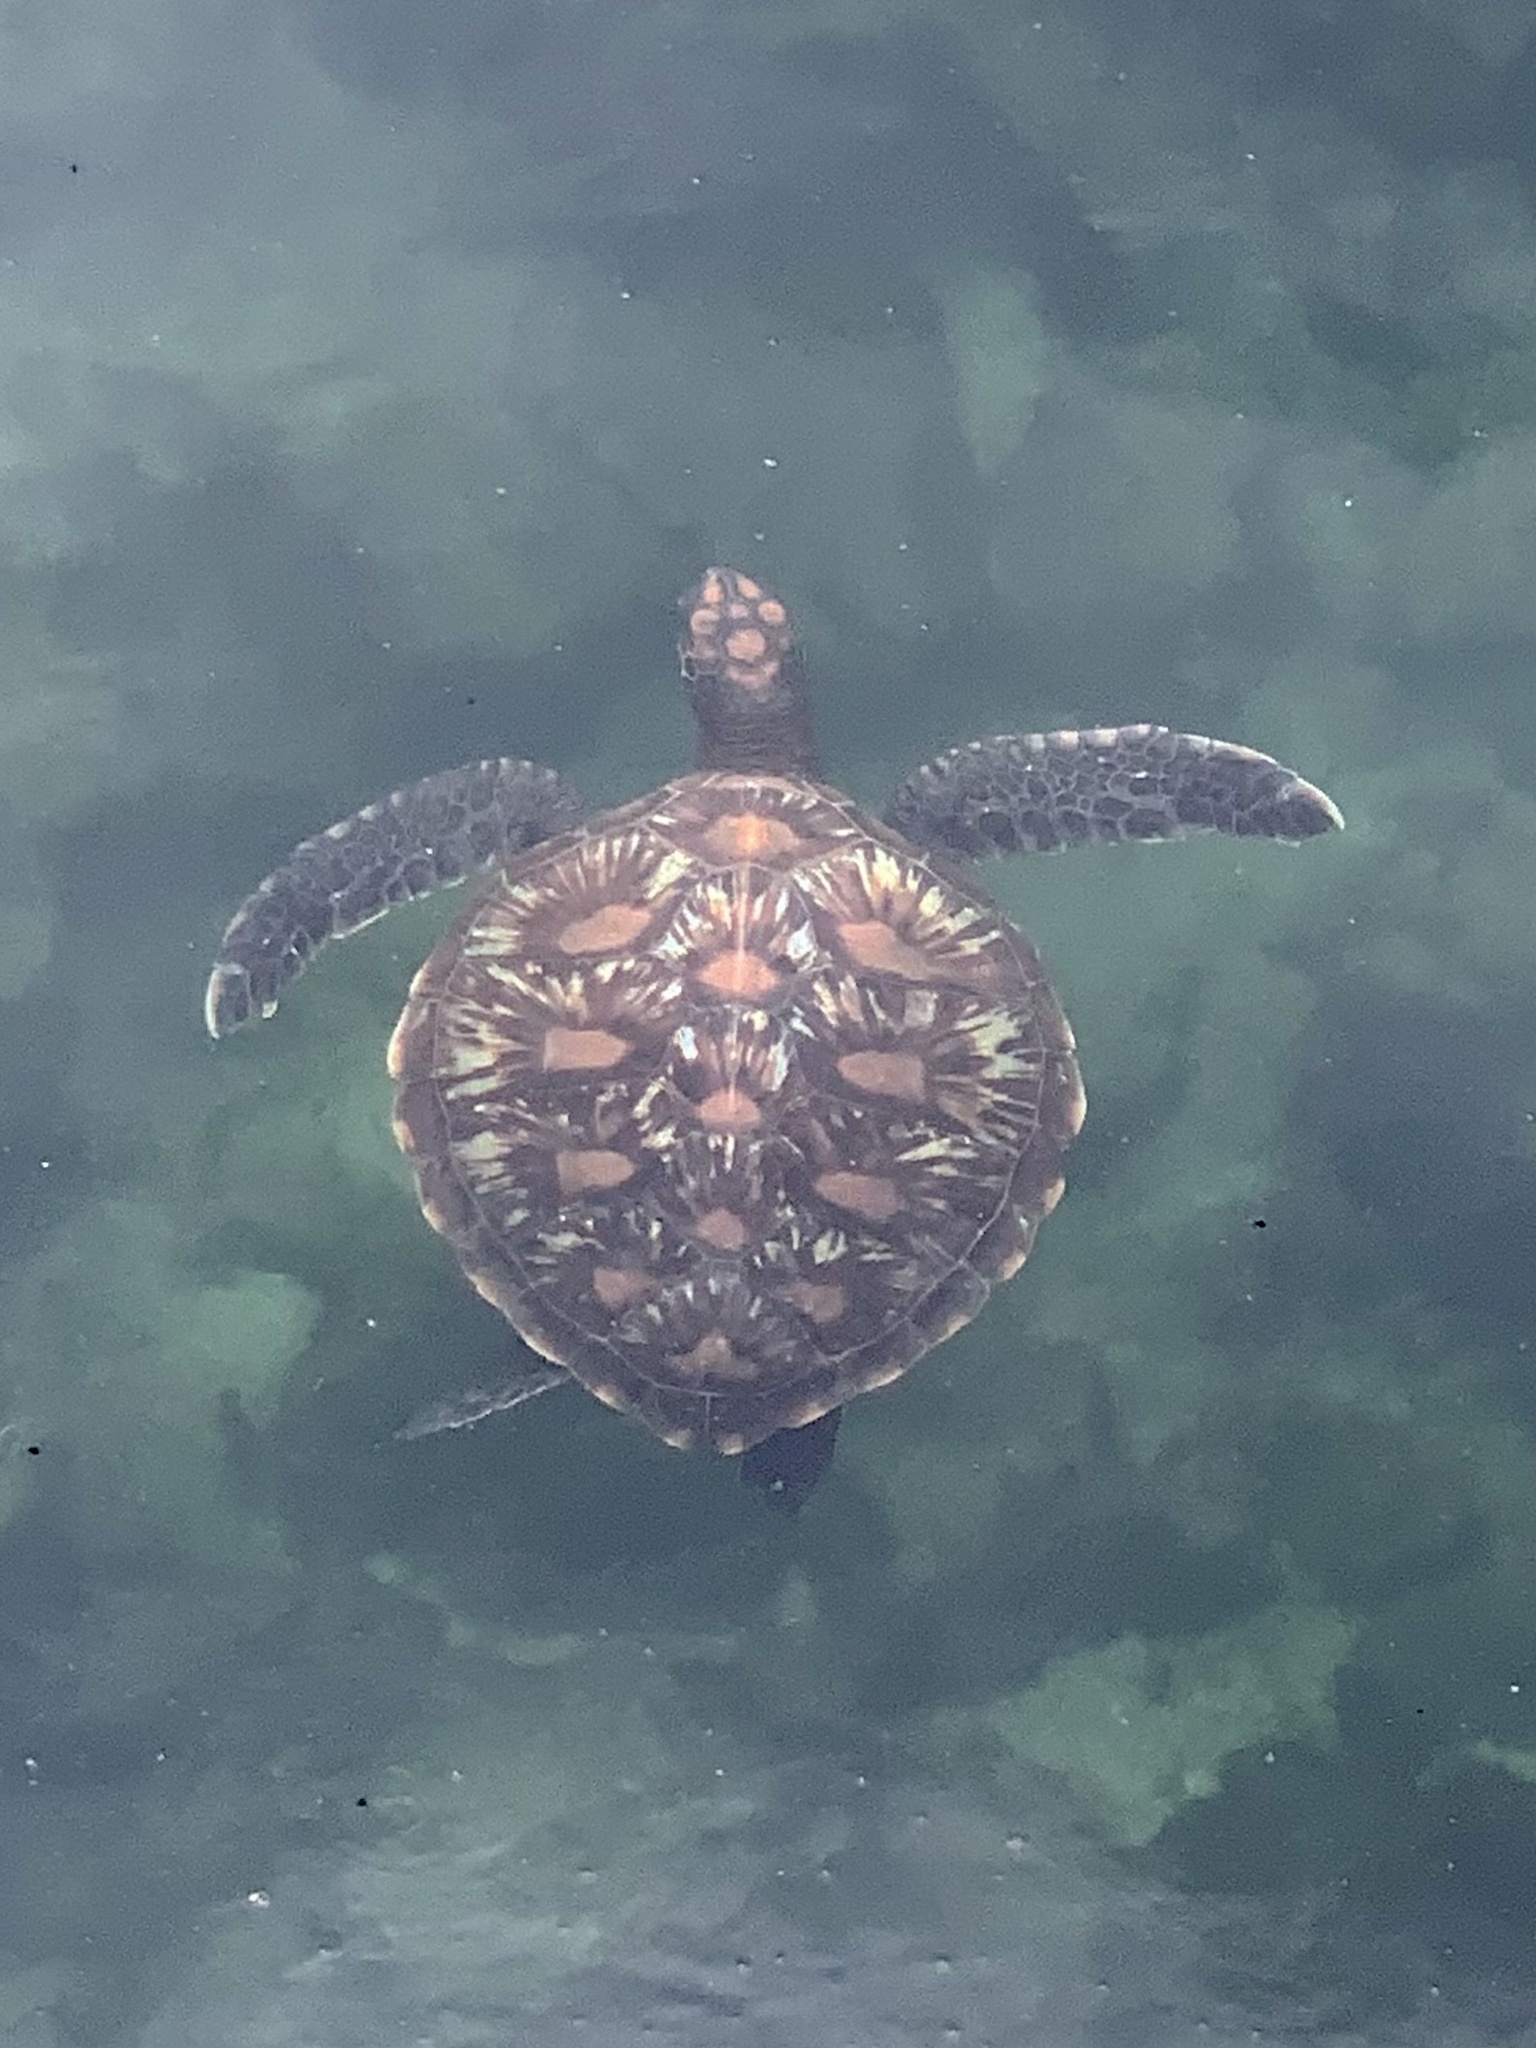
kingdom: Animalia
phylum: Chordata
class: Testudines
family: Cheloniidae
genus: Chelonia
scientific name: Chelonia mydas
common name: Green turtle
